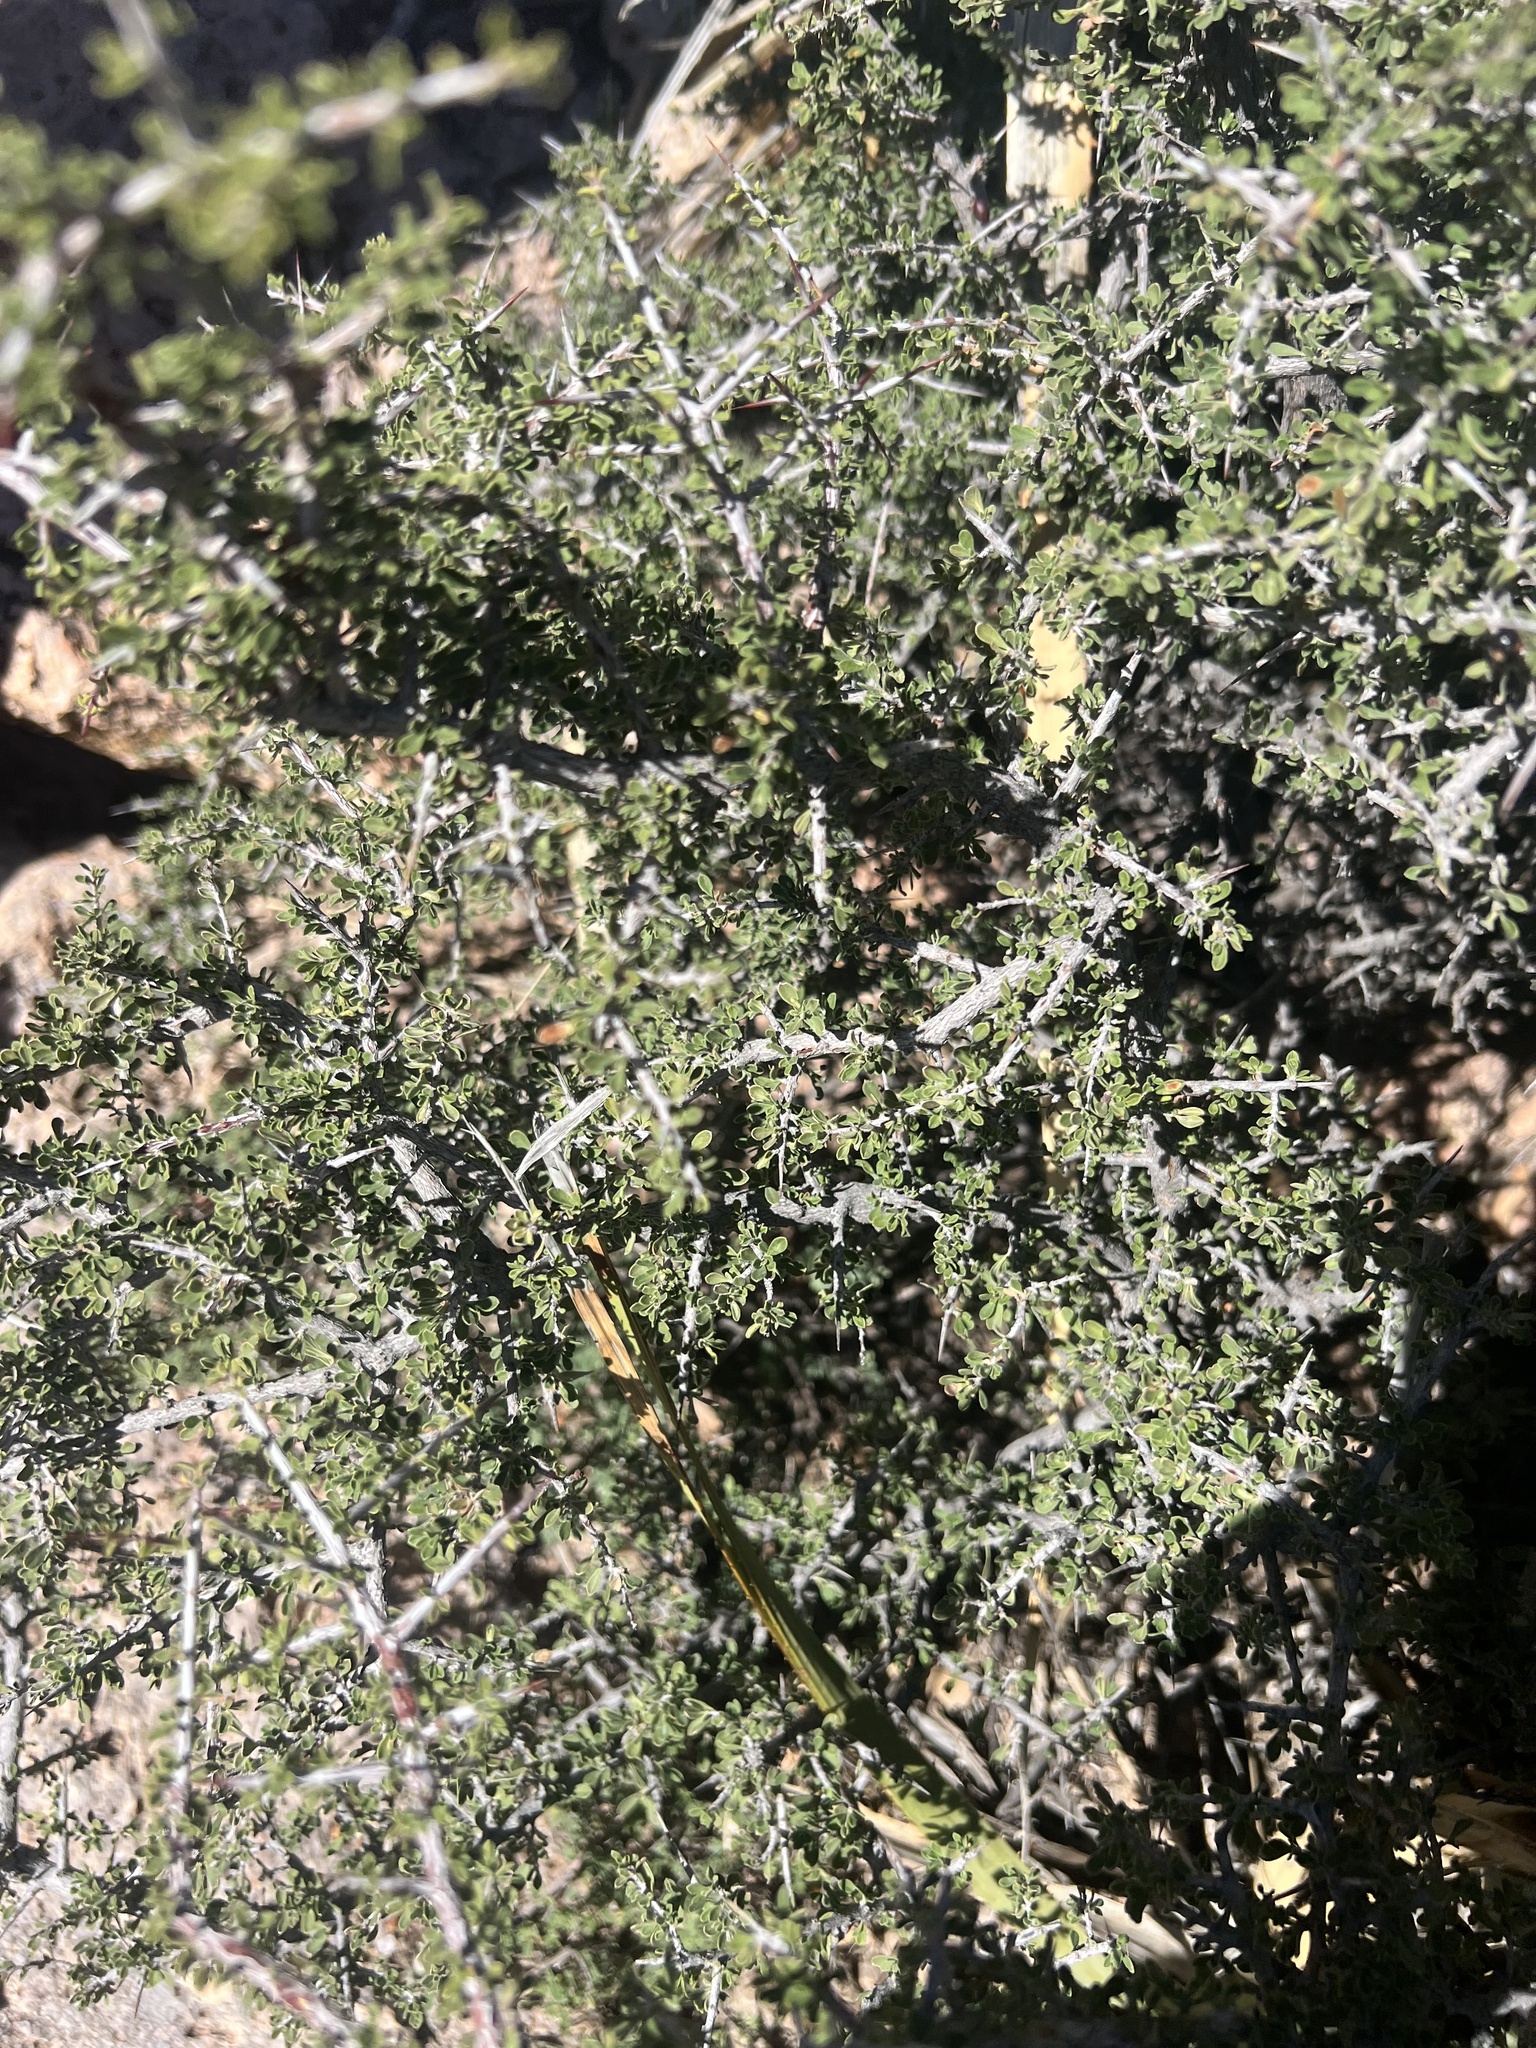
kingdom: Plantae
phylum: Tracheophyta
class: Magnoliopsida
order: Rosales
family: Rhamnaceae
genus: Condalia
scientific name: Condalia warnockii
